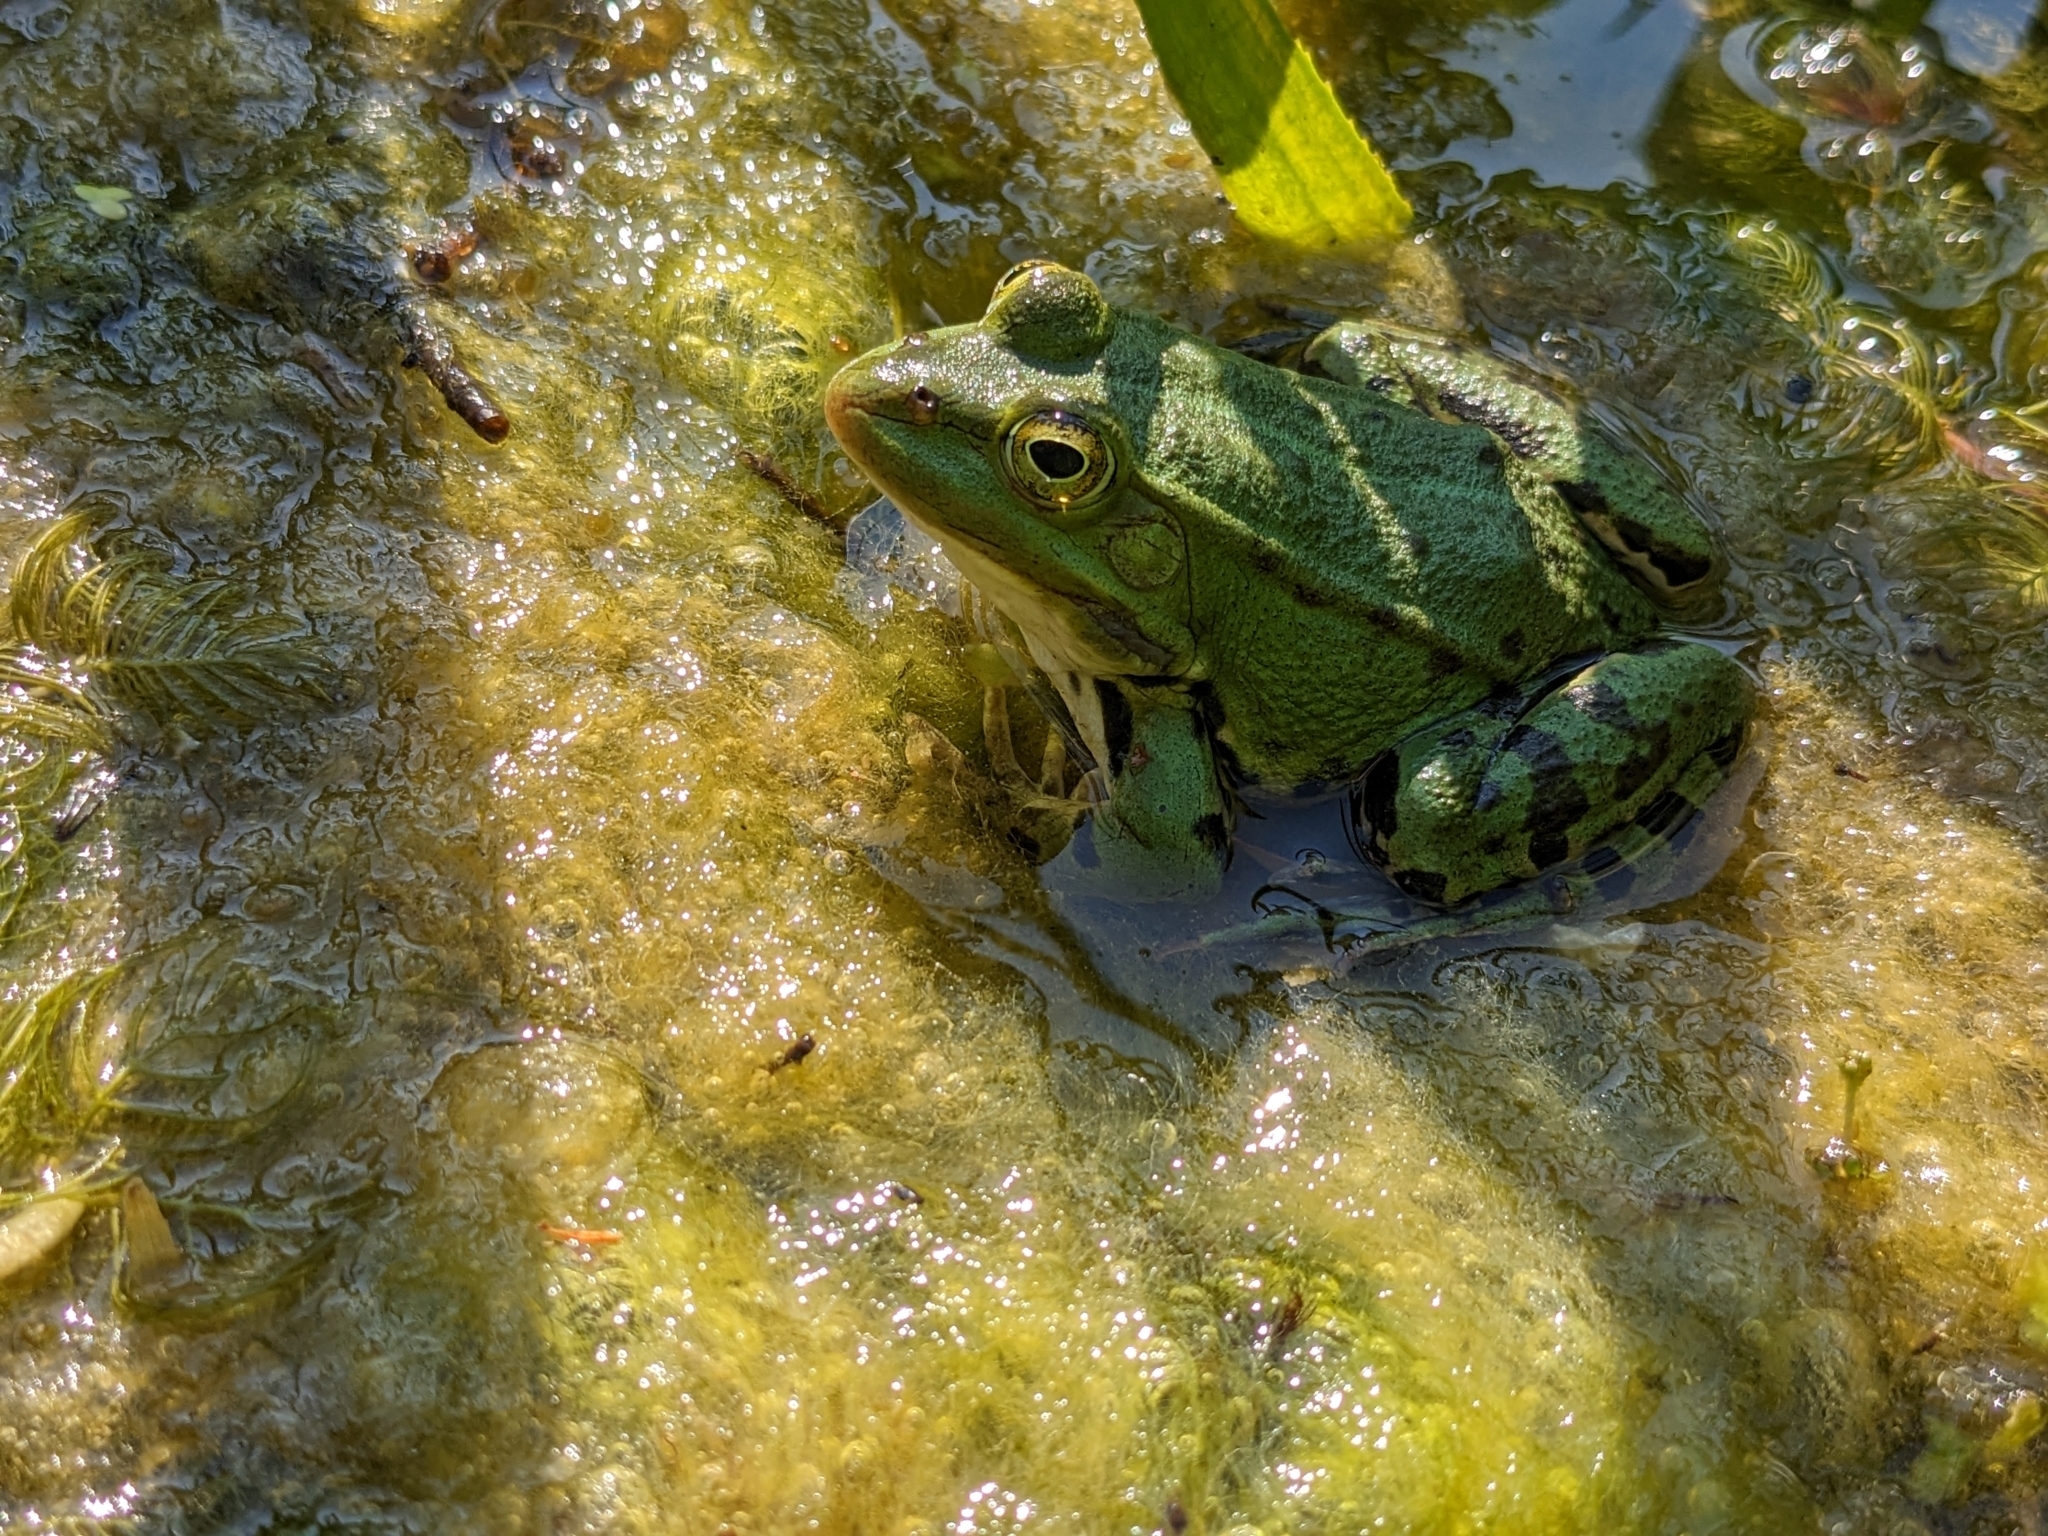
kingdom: Animalia
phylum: Chordata
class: Amphibia
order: Anura
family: Ranidae
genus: Pelophylax
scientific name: Pelophylax lessonae
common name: Pool frog
